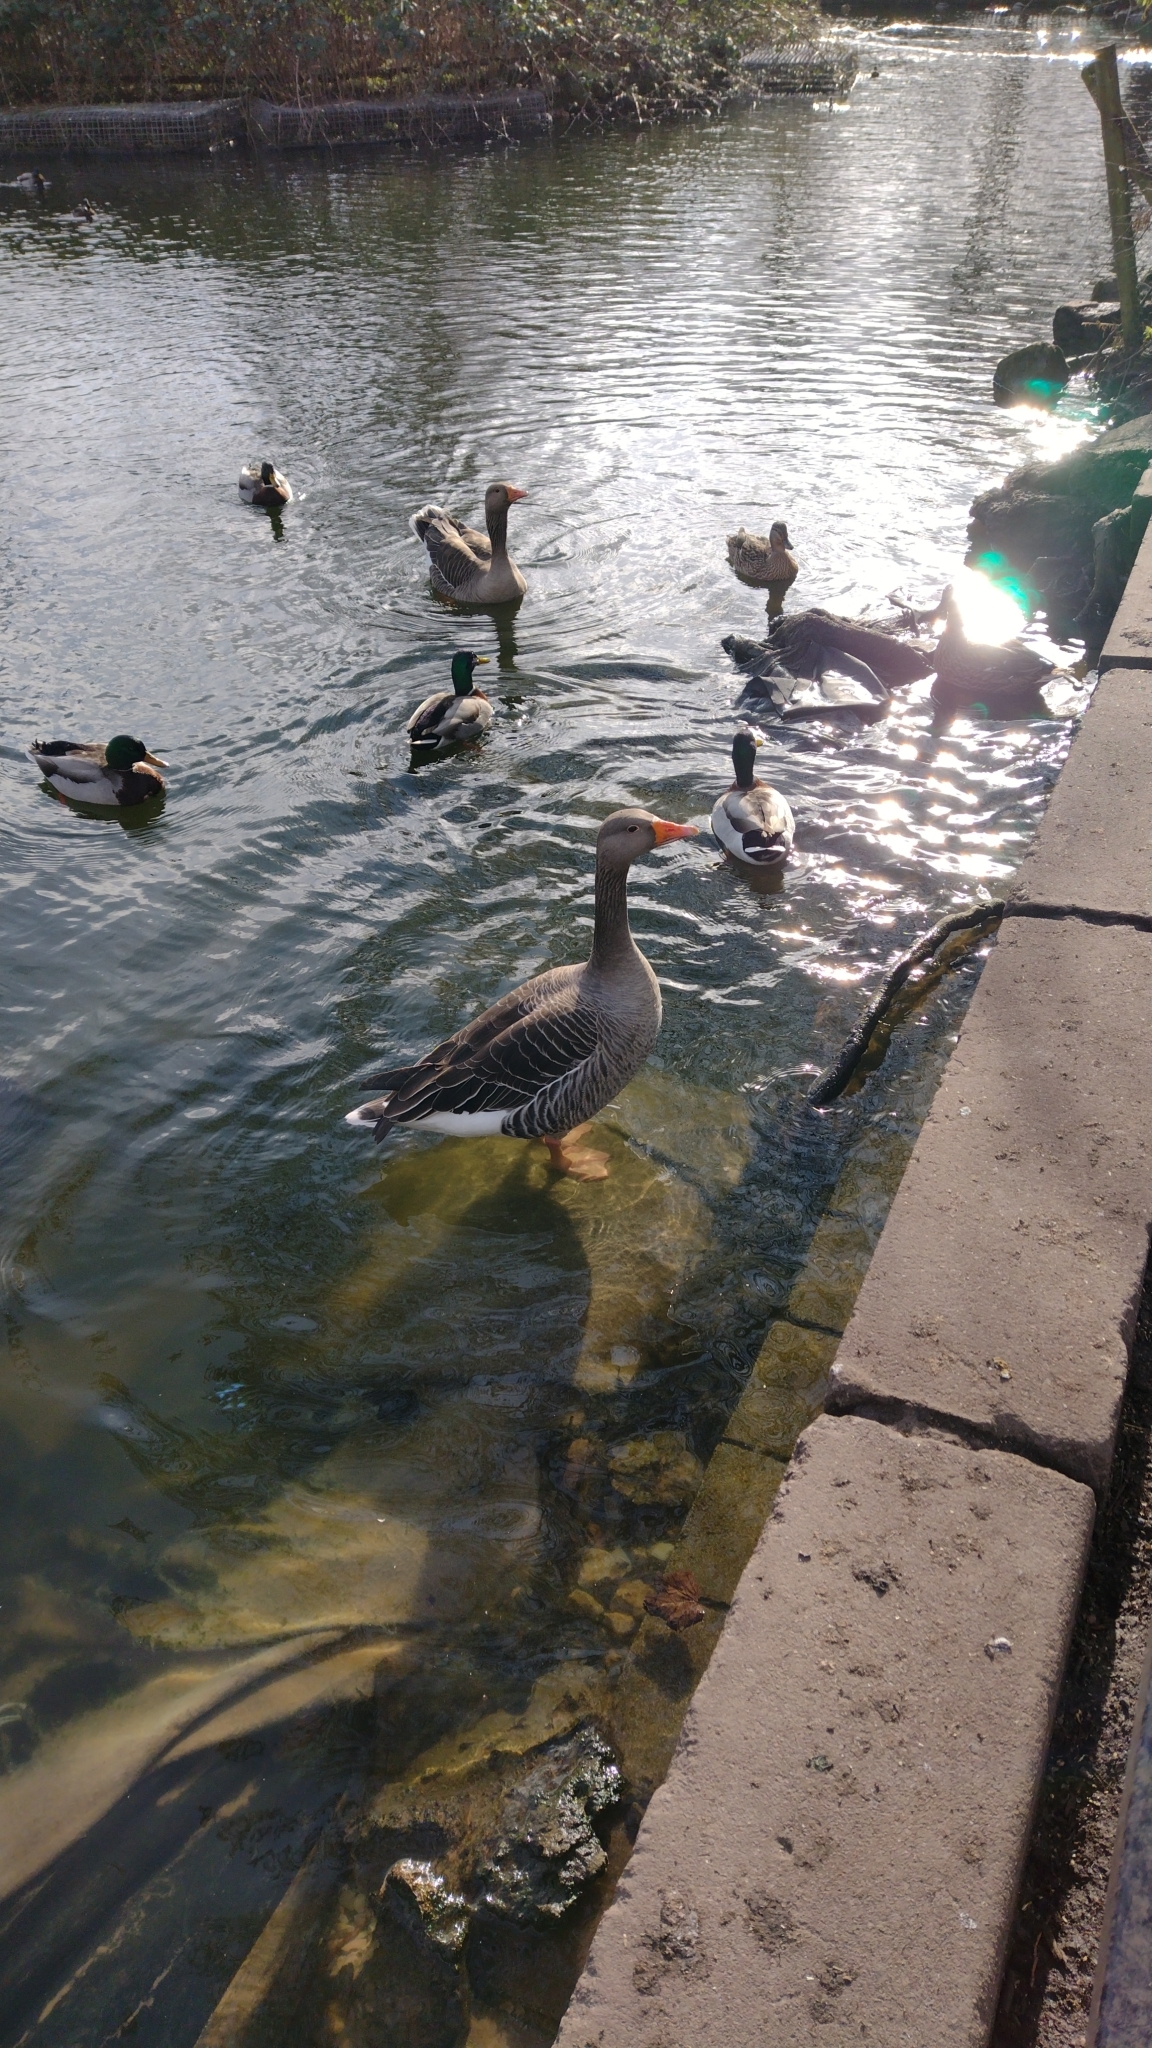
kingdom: Animalia
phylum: Chordata
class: Aves
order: Anseriformes
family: Anatidae
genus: Anser
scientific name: Anser anser
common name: Greylag goose
